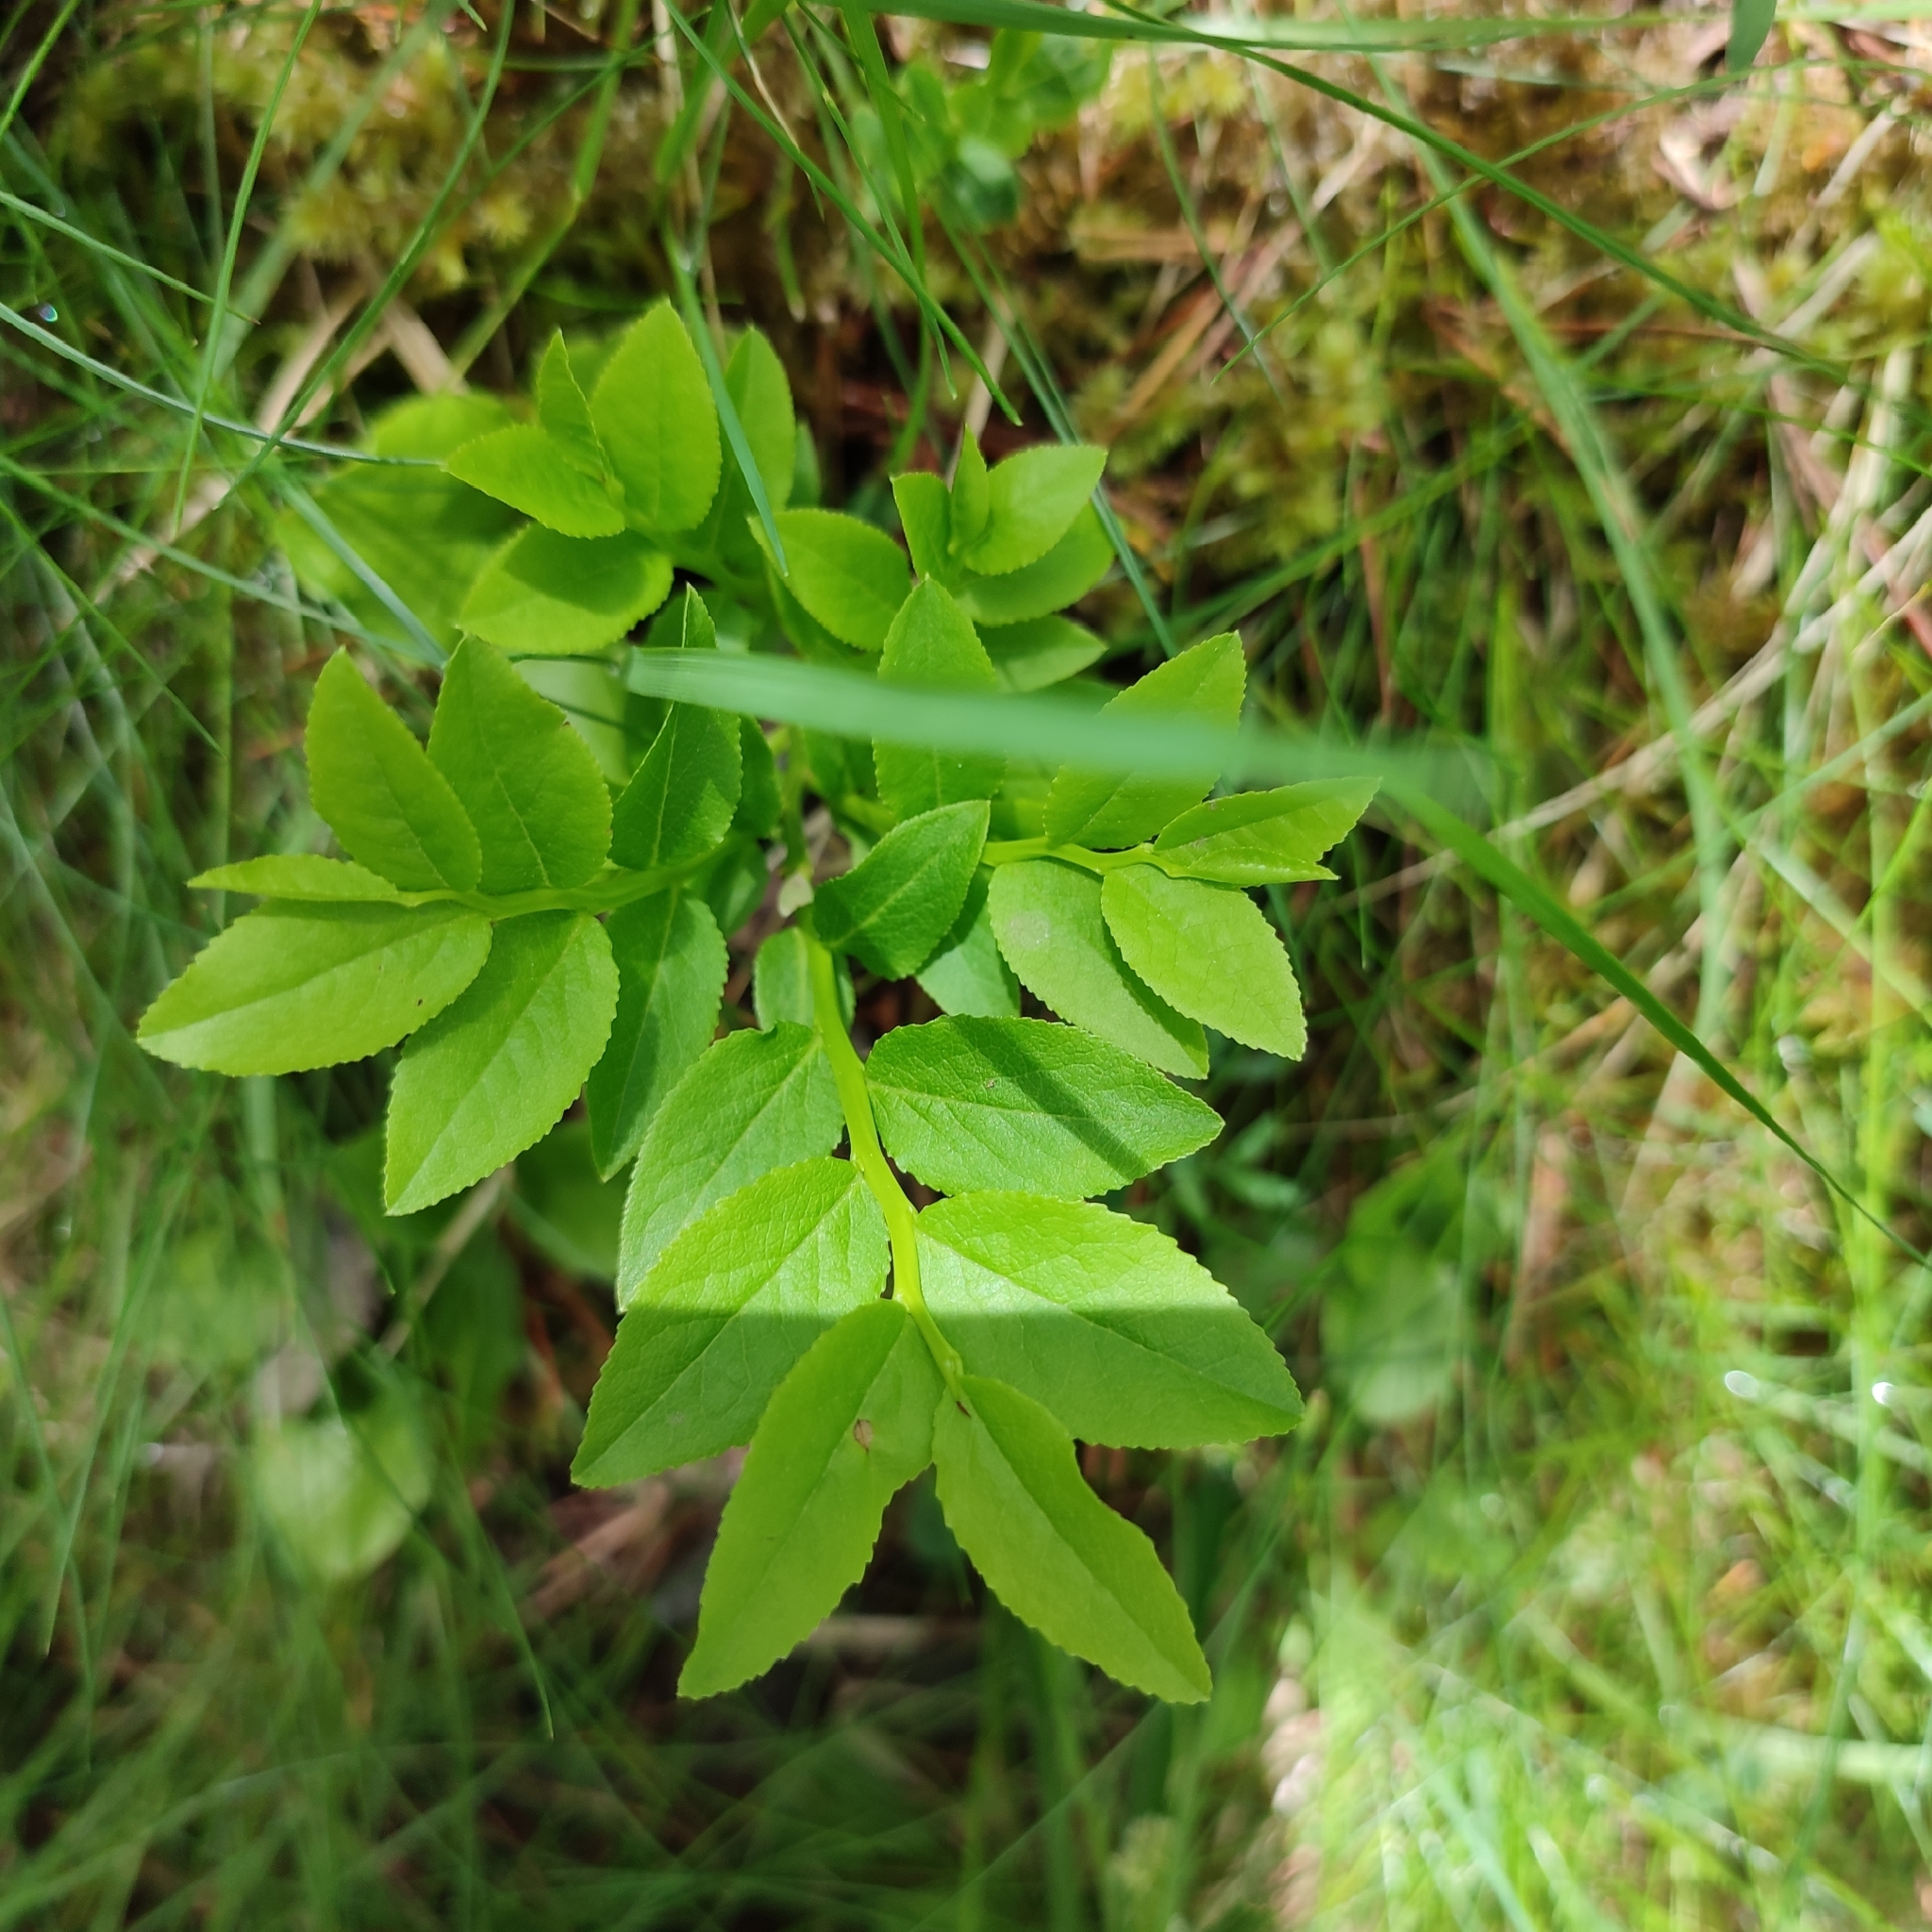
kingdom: Plantae
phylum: Tracheophyta
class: Magnoliopsida
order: Ericales
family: Ericaceae
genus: Vaccinium
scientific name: Vaccinium myrtillus
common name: Bilberry
